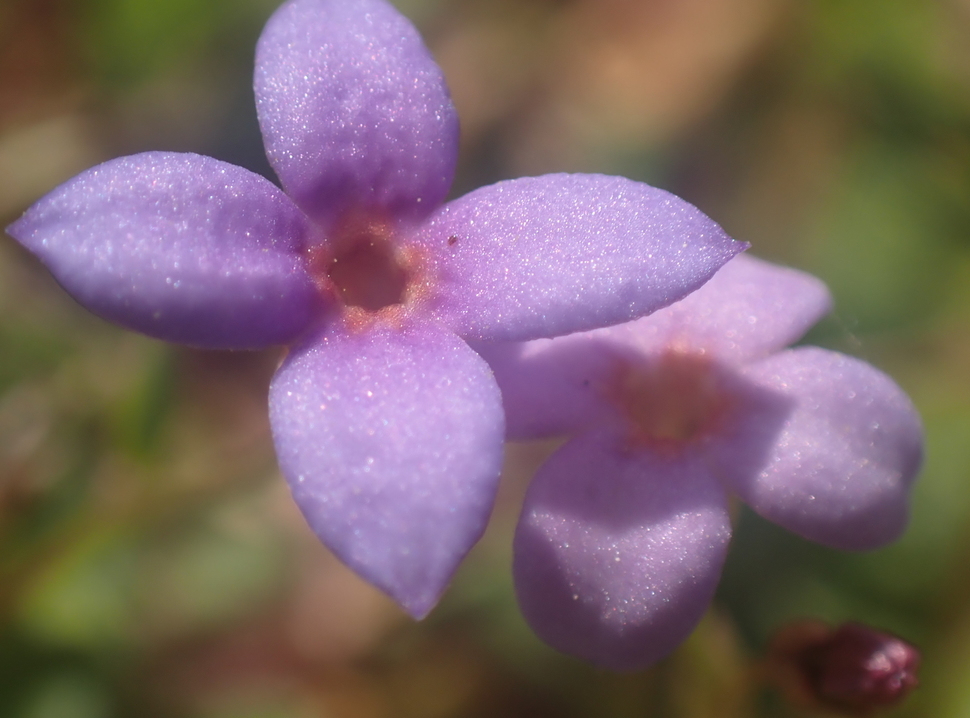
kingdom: Plantae
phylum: Tracheophyta
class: Magnoliopsida
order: Gentianales
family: Rubiaceae
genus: Houstonia
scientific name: Houstonia pusilla
